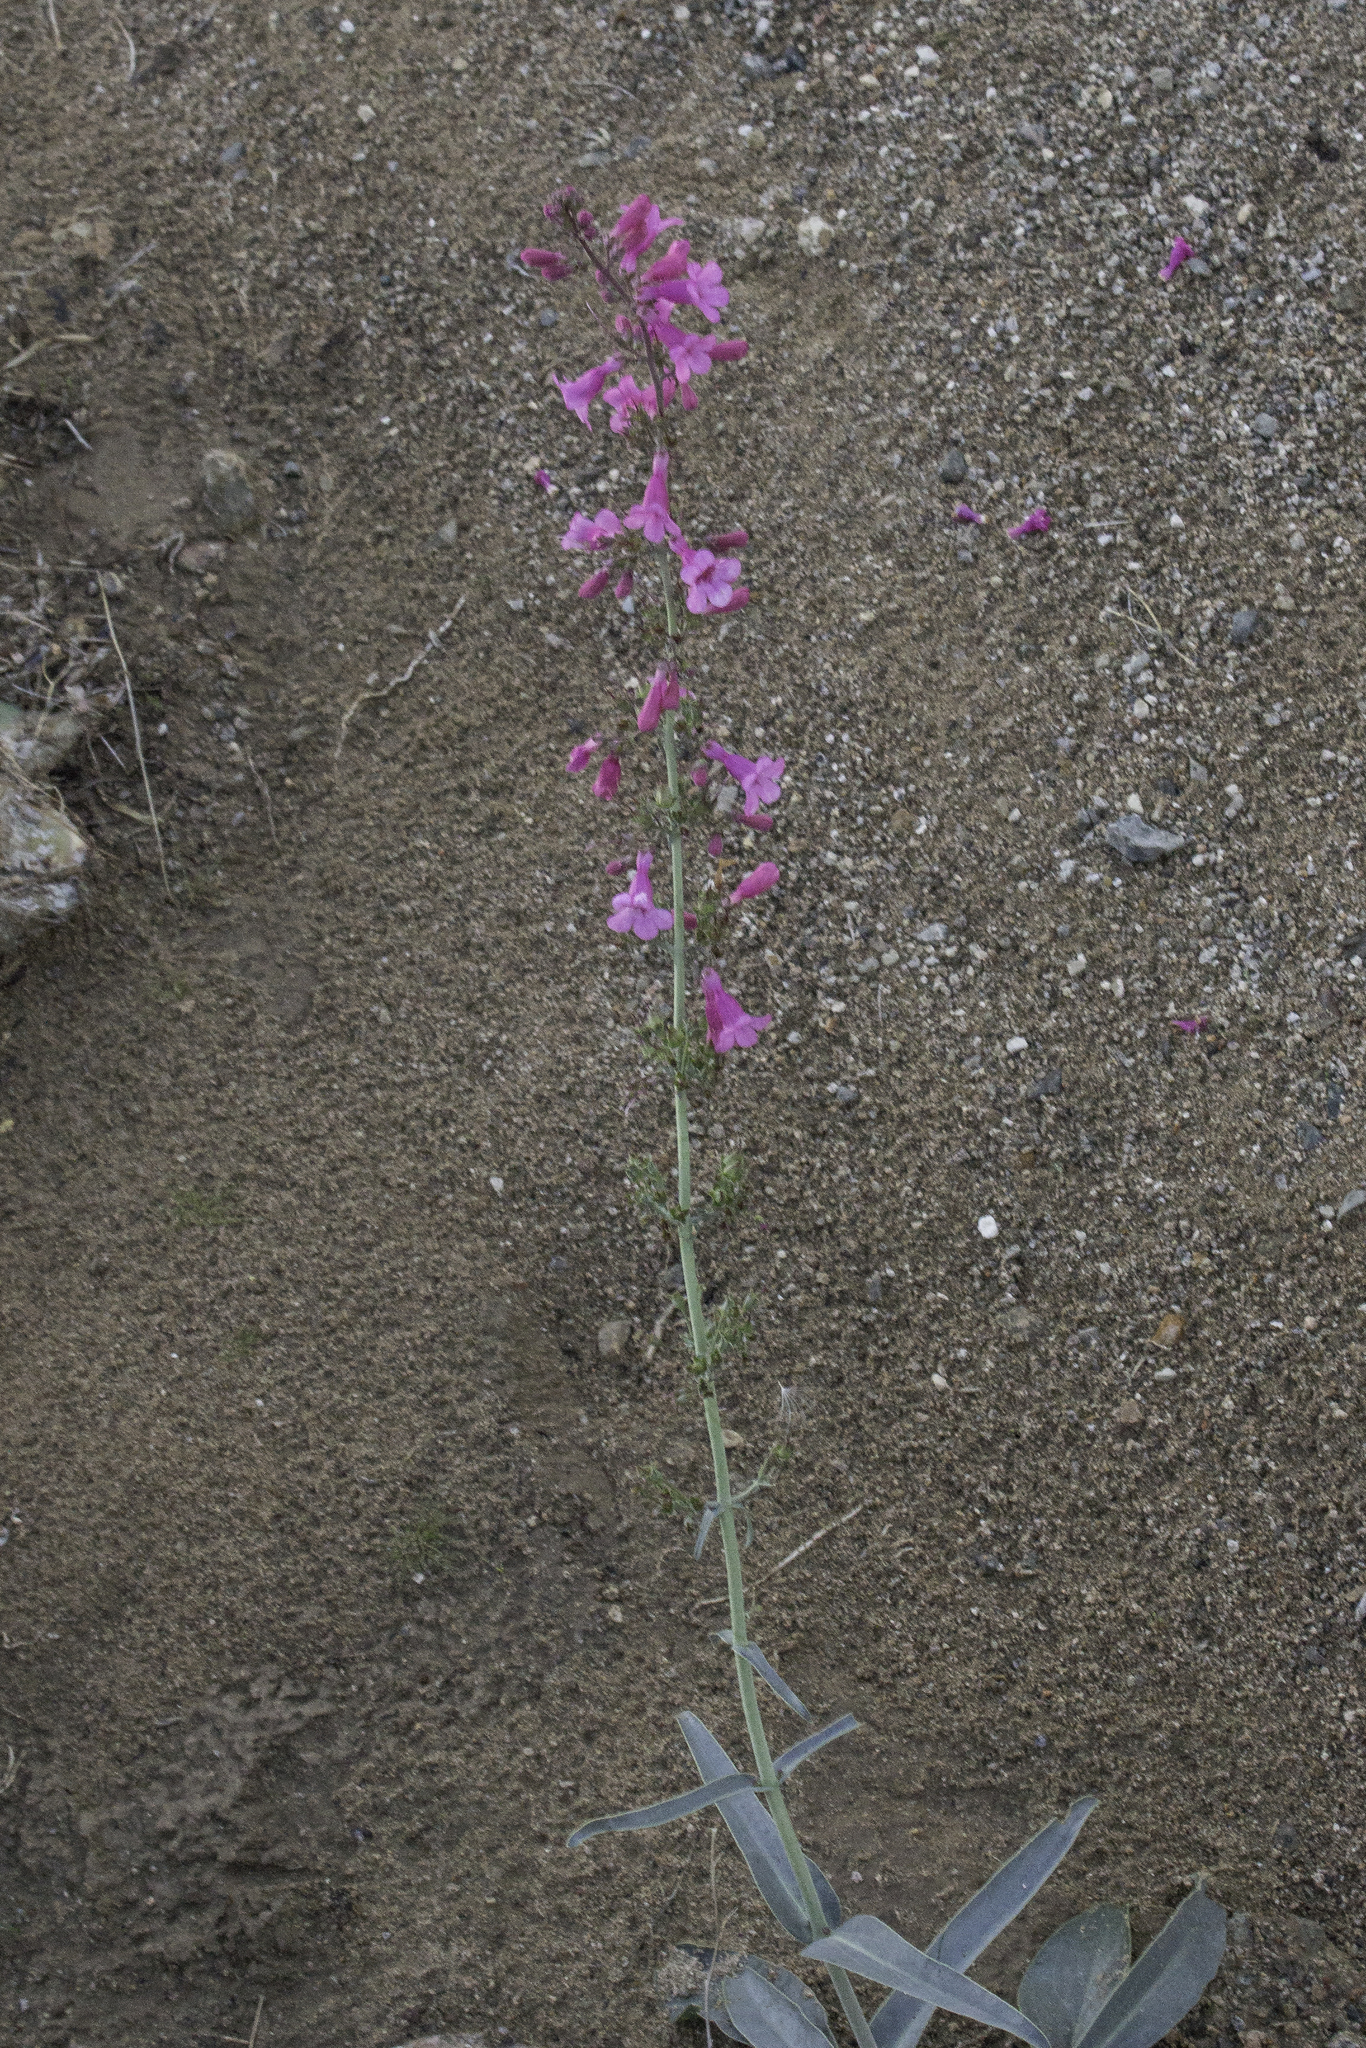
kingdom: Plantae
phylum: Tracheophyta
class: Magnoliopsida
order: Lamiales
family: Plantaginaceae
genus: Penstemon
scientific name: Penstemon parryi
